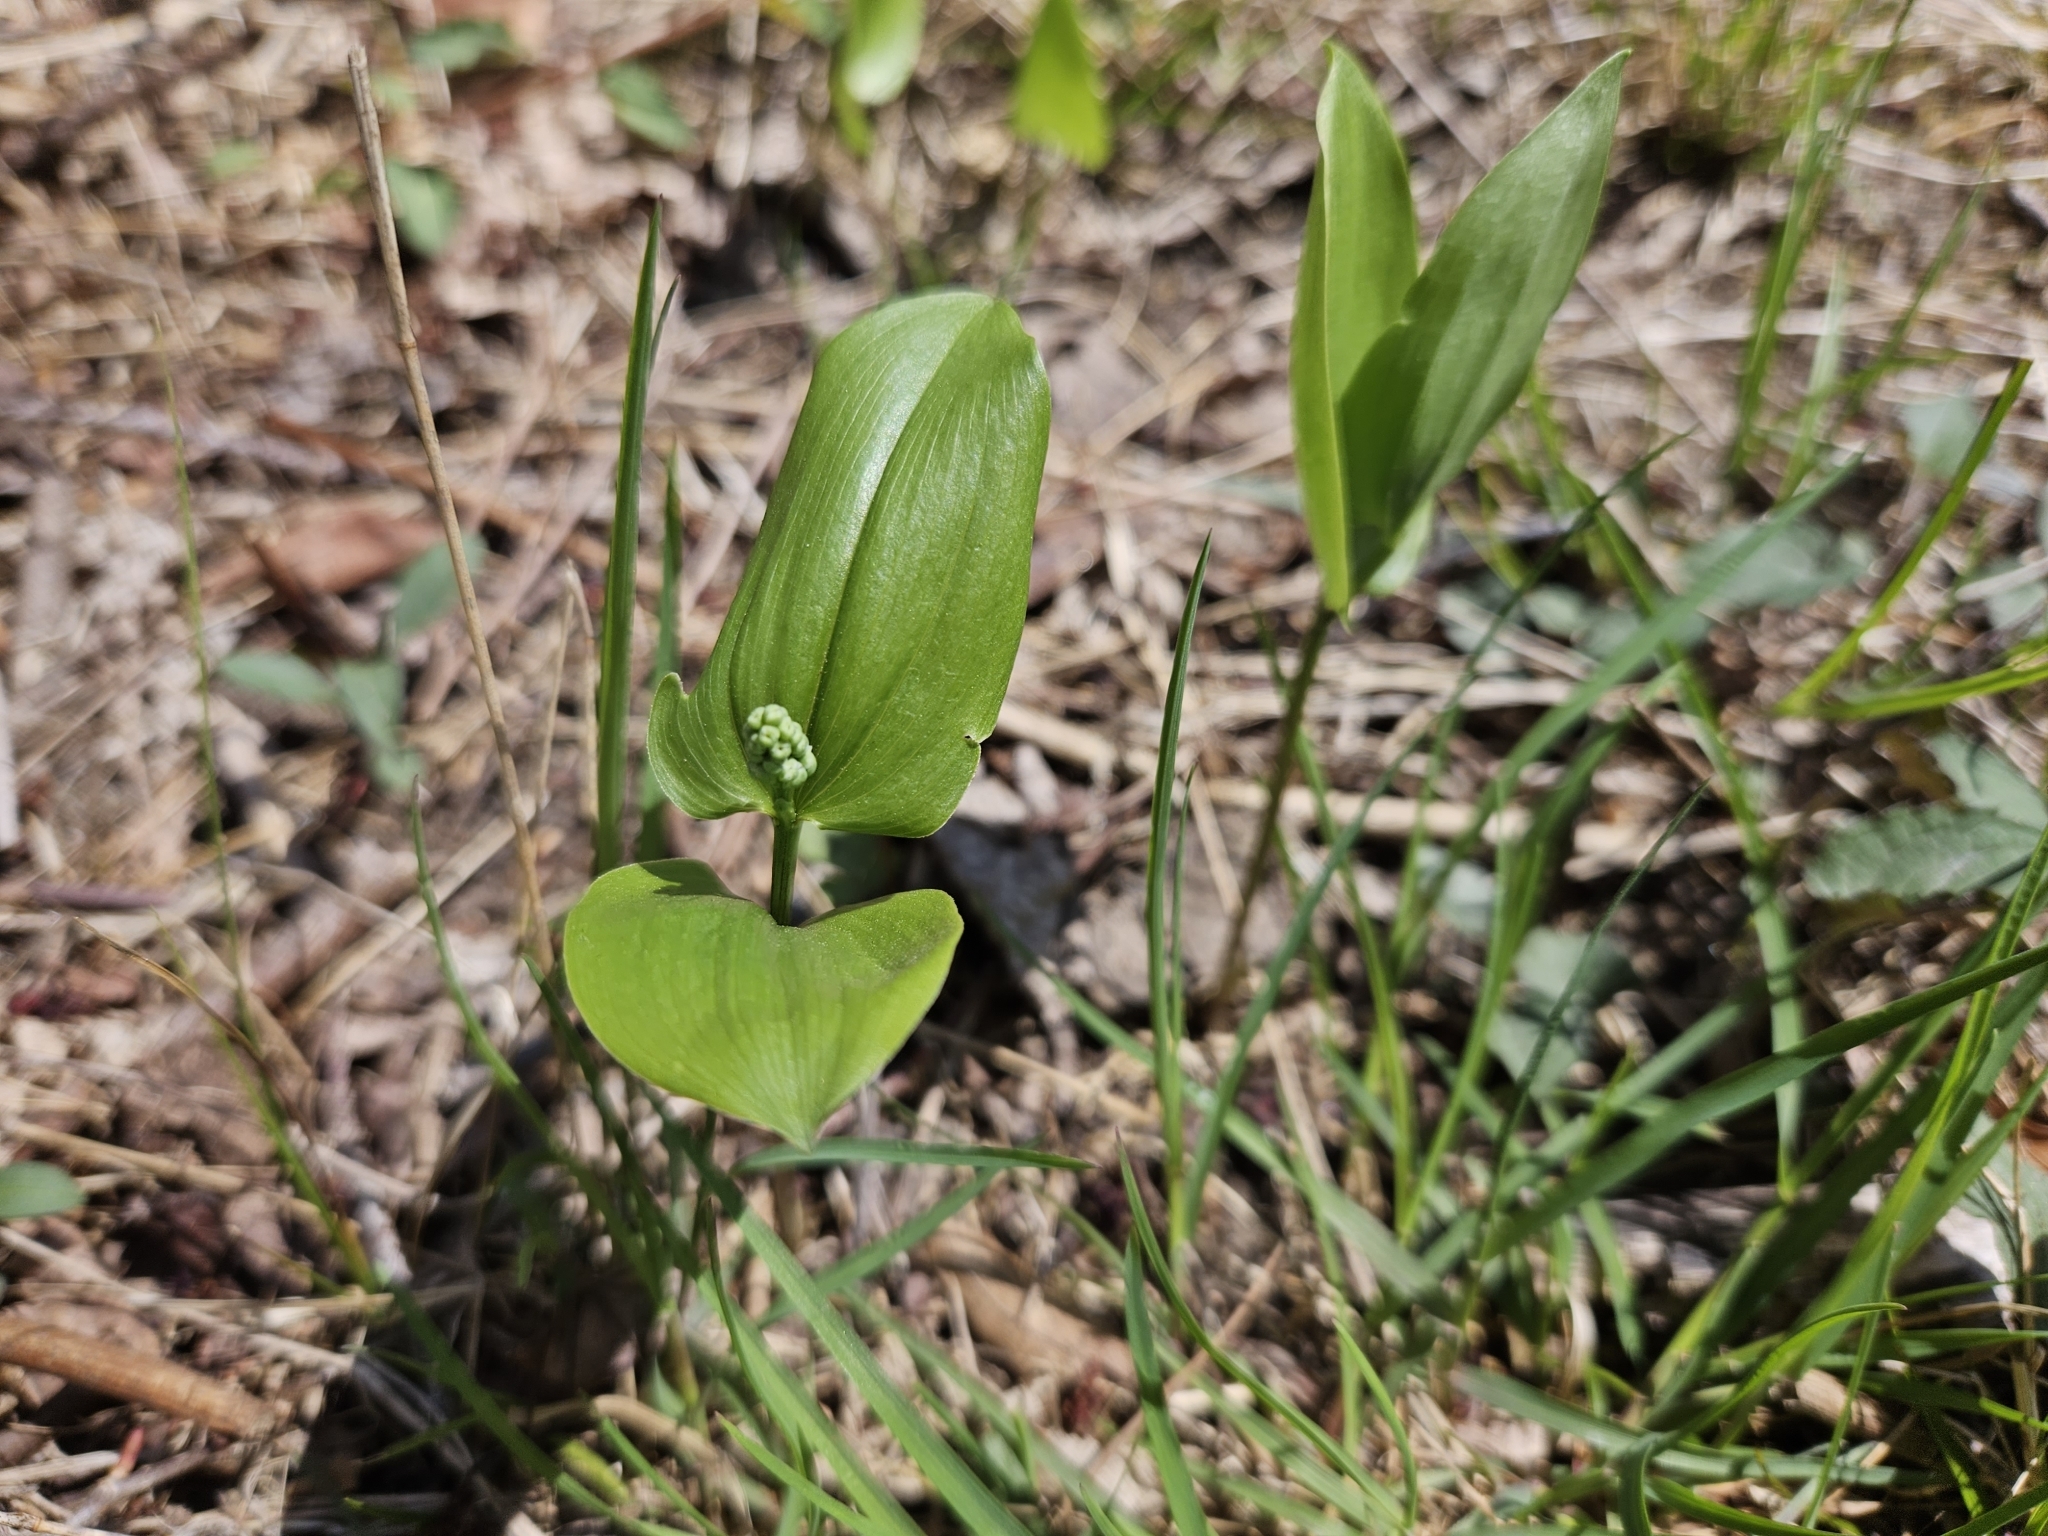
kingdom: Plantae
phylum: Tracheophyta
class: Liliopsida
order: Asparagales
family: Asparagaceae
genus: Maianthemum
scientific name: Maianthemum canadense
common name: False lily-of-the-valley
